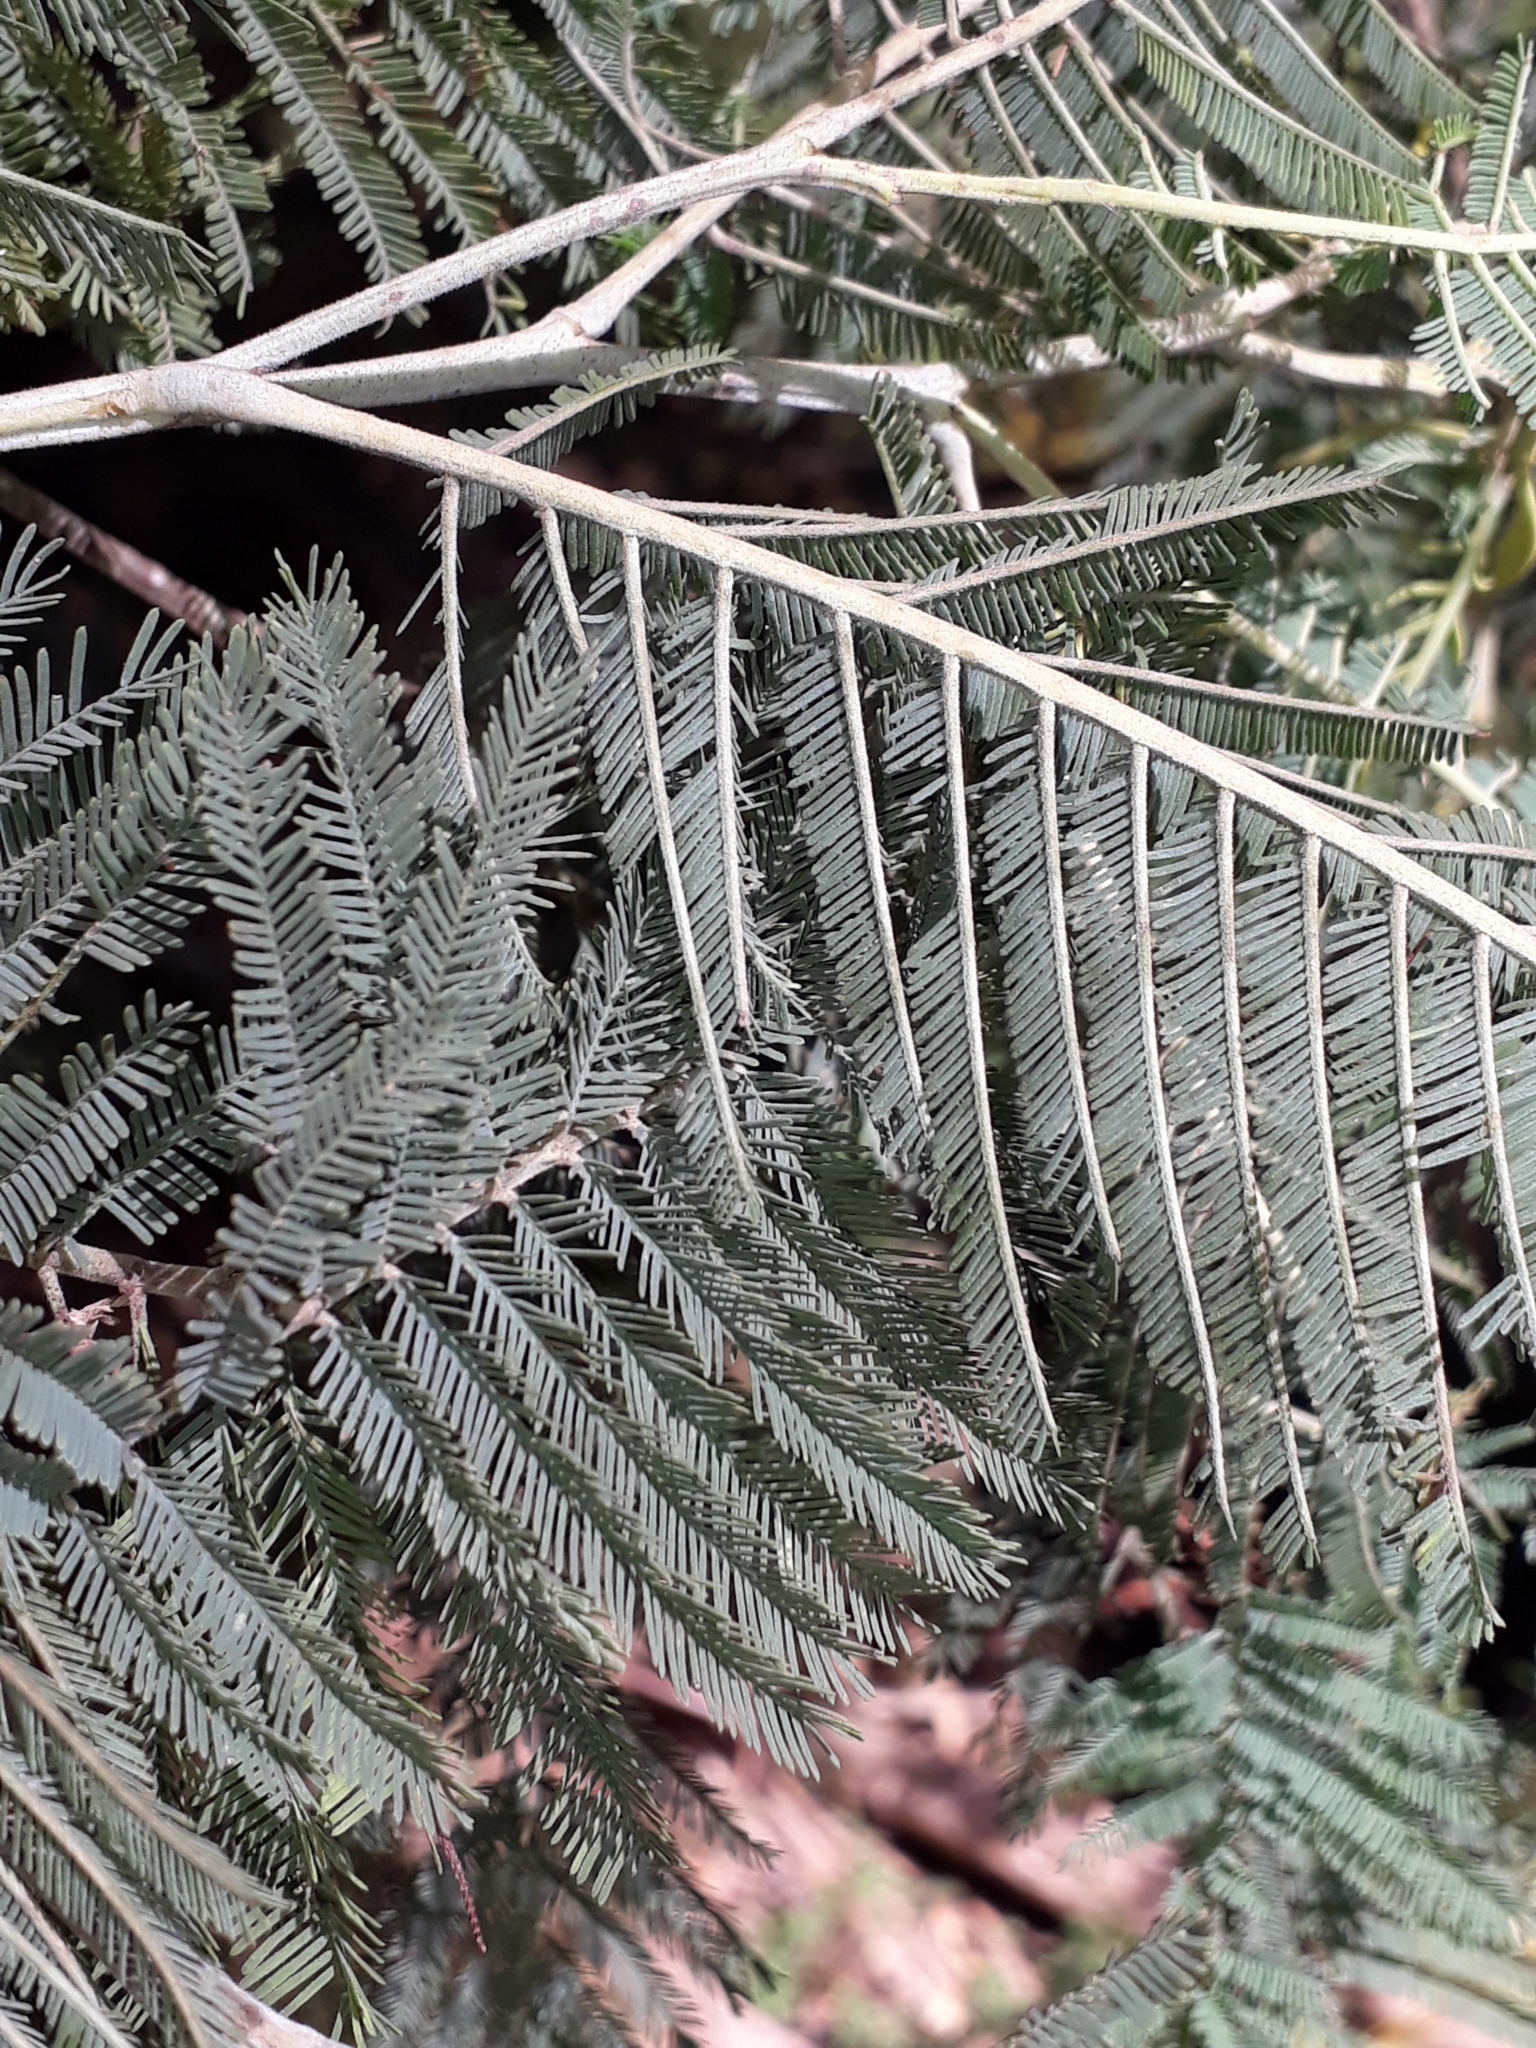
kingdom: Plantae
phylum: Tracheophyta
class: Magnoliopsida
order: Fabales
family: Fabaceae
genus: Acacia
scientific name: Acacia dealbata
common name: Silver wattle
